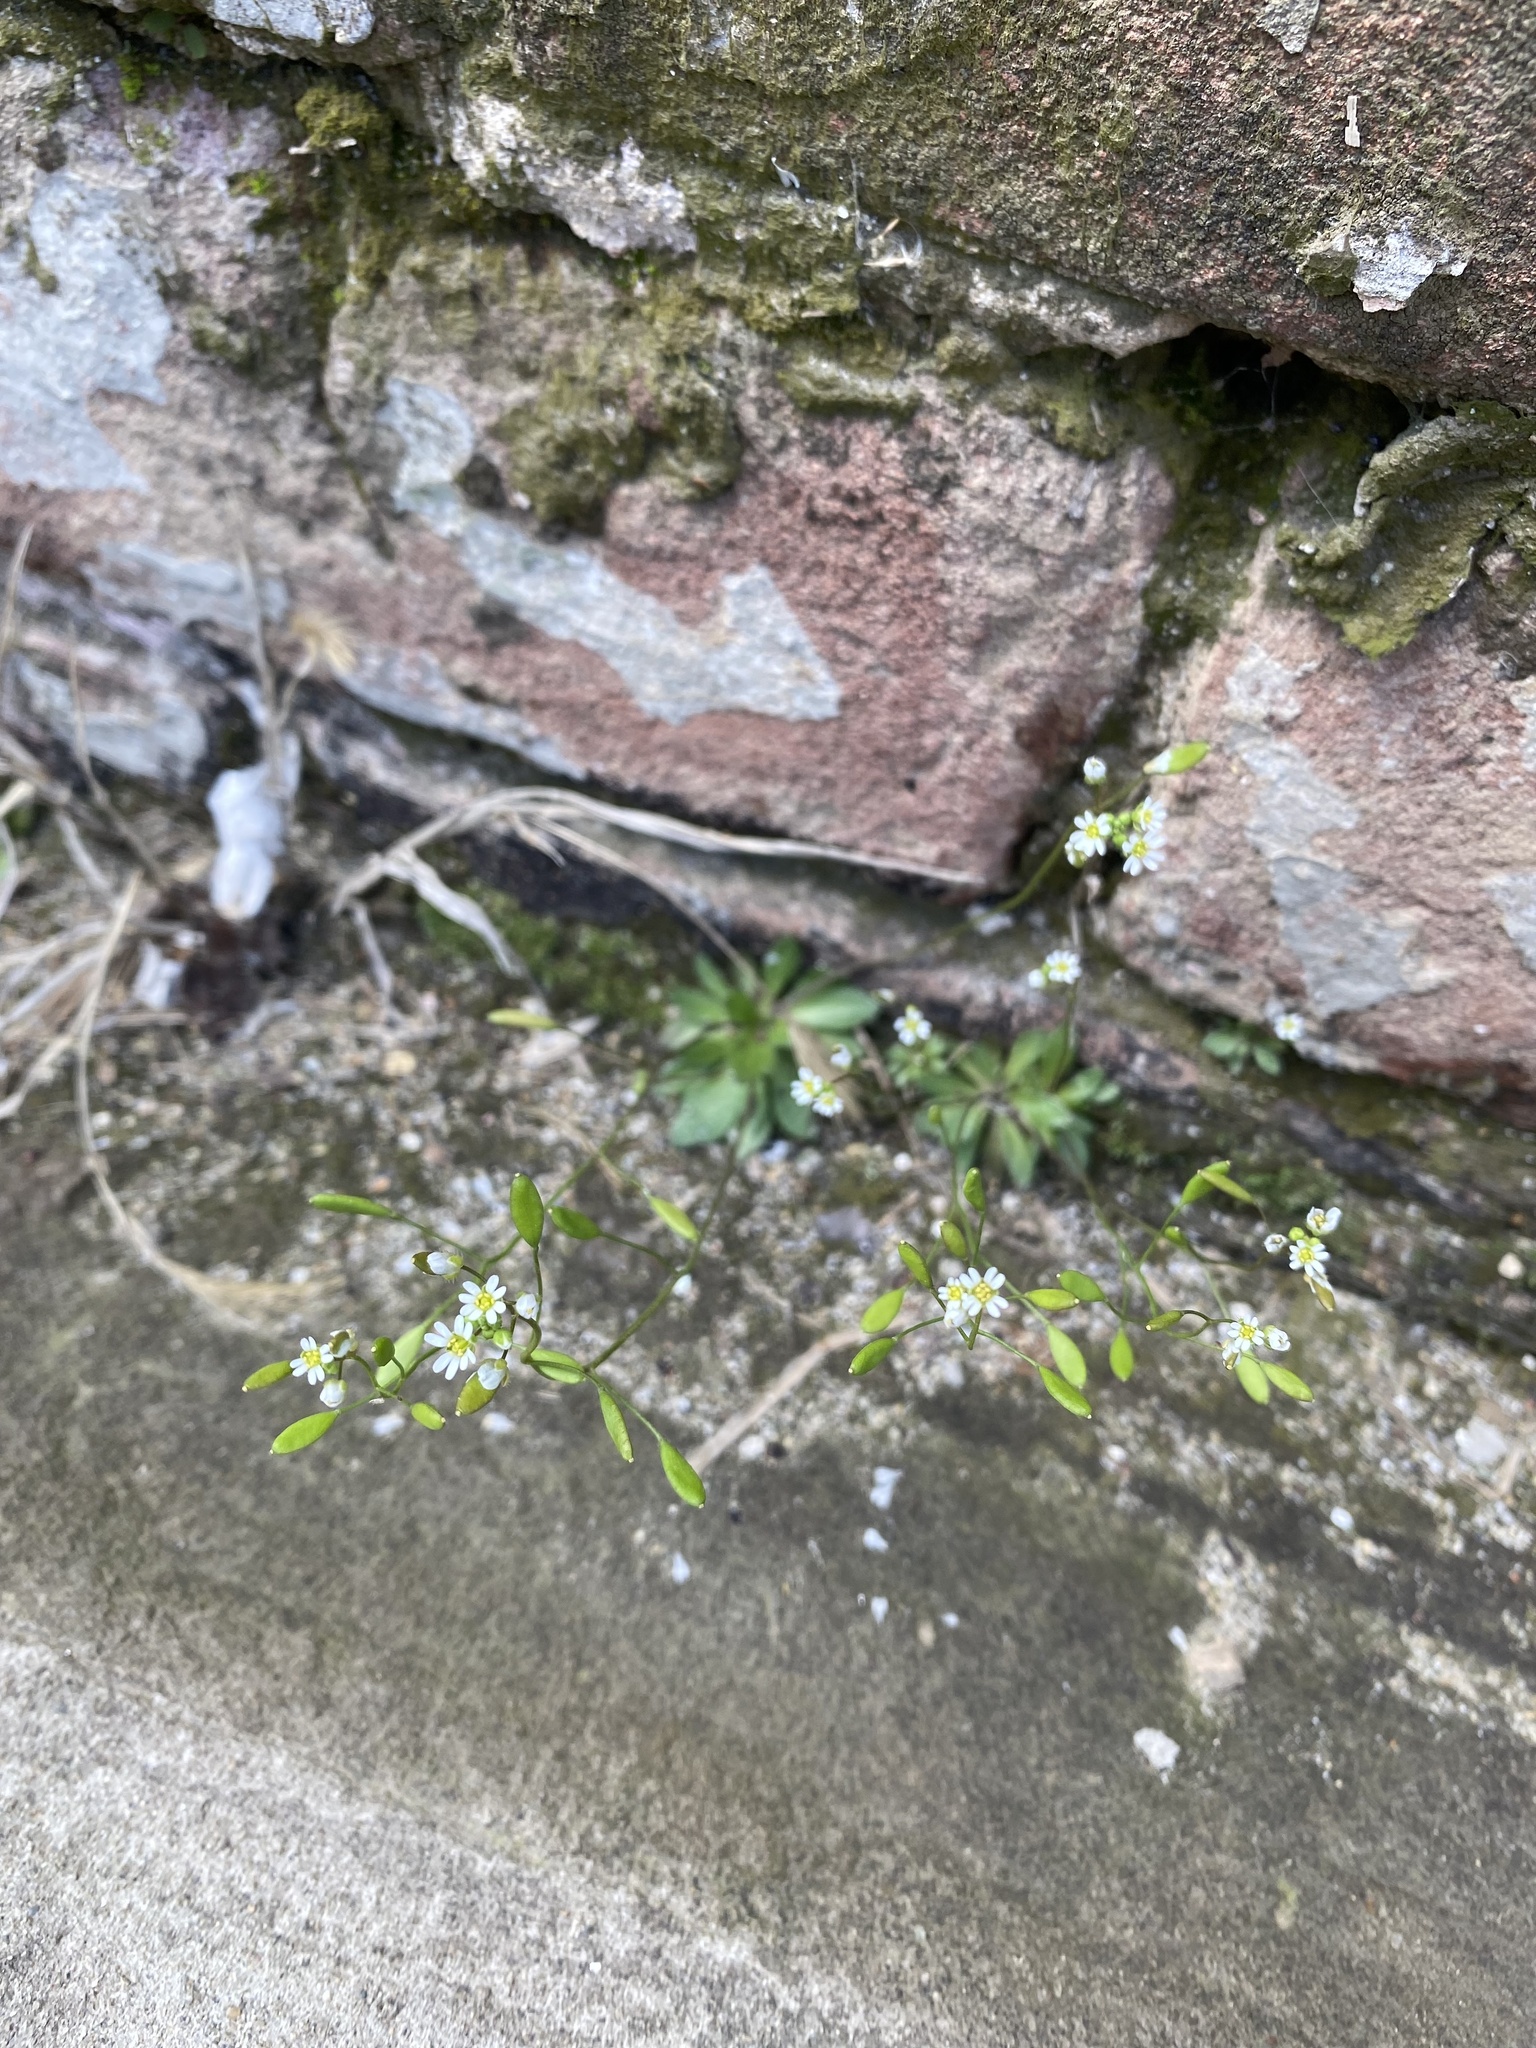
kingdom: Plantae
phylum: Tracheophyta
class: Magnoliopsida
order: Brassicales
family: Brassicaceae
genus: Draba
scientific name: Draba verna
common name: Spring draba
